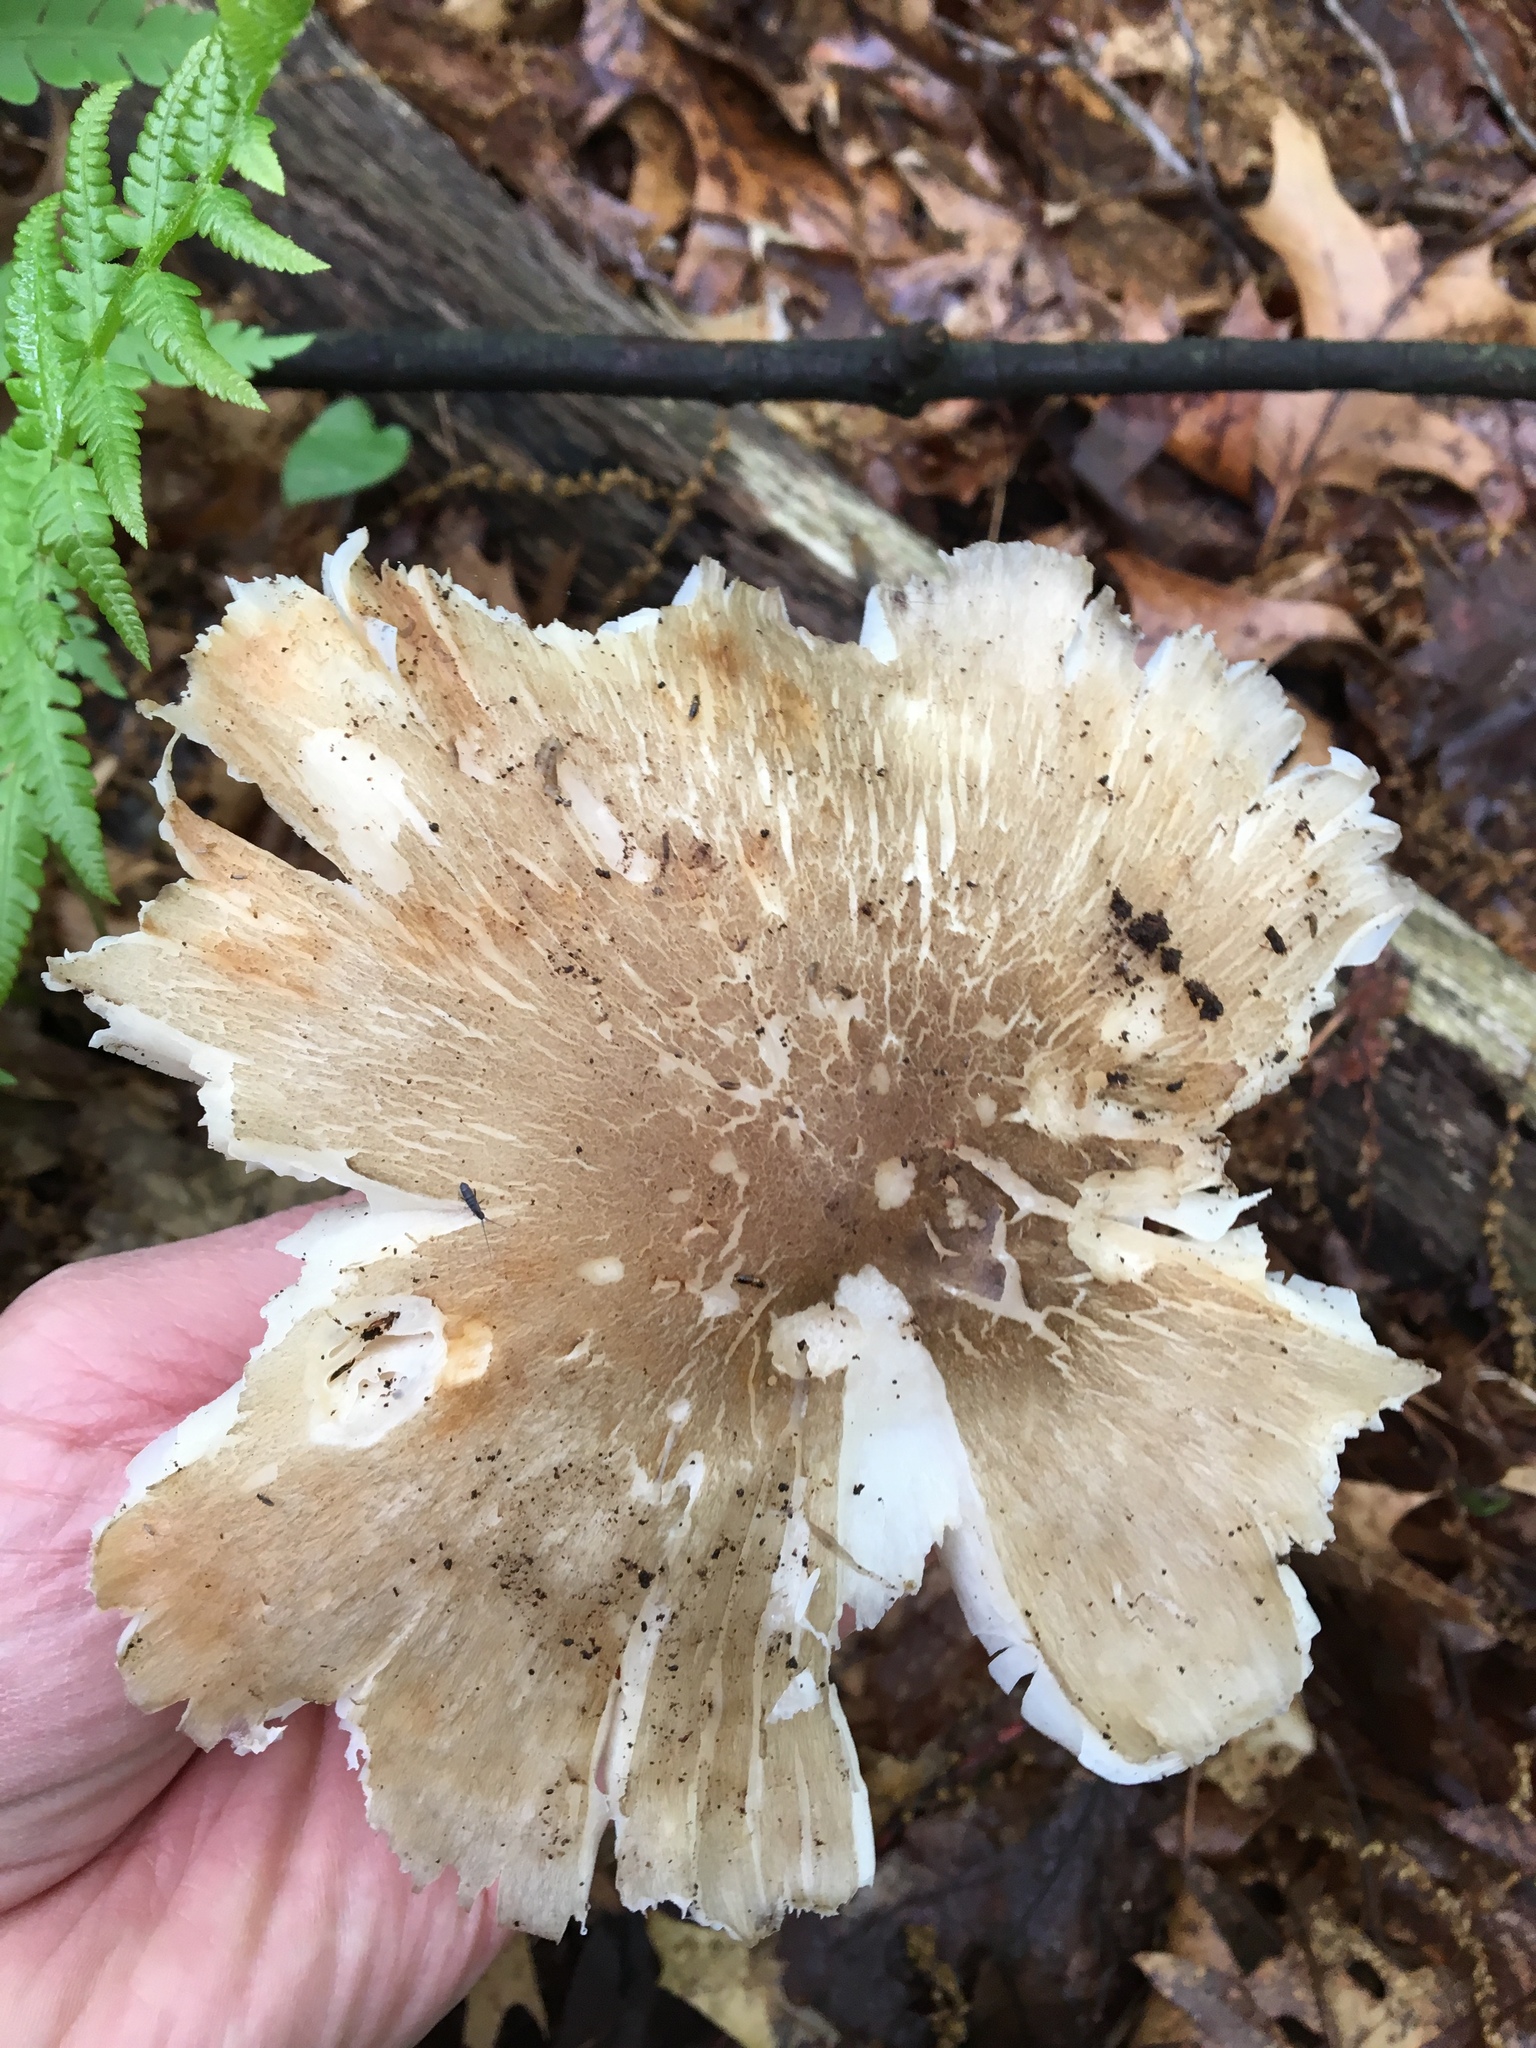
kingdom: Fungi
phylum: Basidiomycota
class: Agaricomycetes
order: Agaricales
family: Tricholomataceae
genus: Megacollybia
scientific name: Megacollybia rodmanii
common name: Eastern american platterful mushroom
